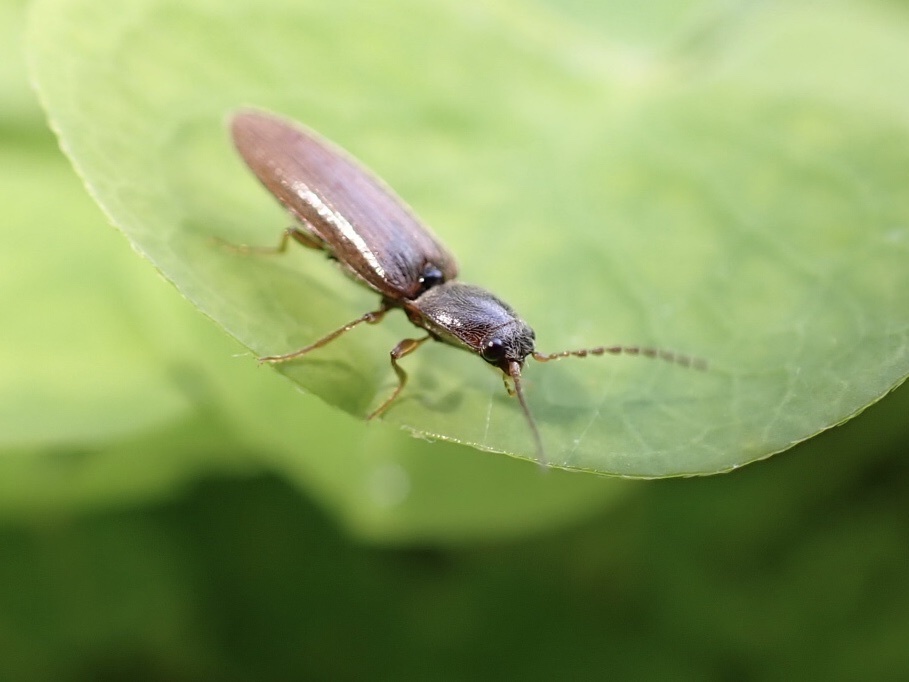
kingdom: Animalia
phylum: Arthropoda
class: Insecta
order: Coleoptera
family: Elateridae
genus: Athous
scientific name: Athous subfuscus
